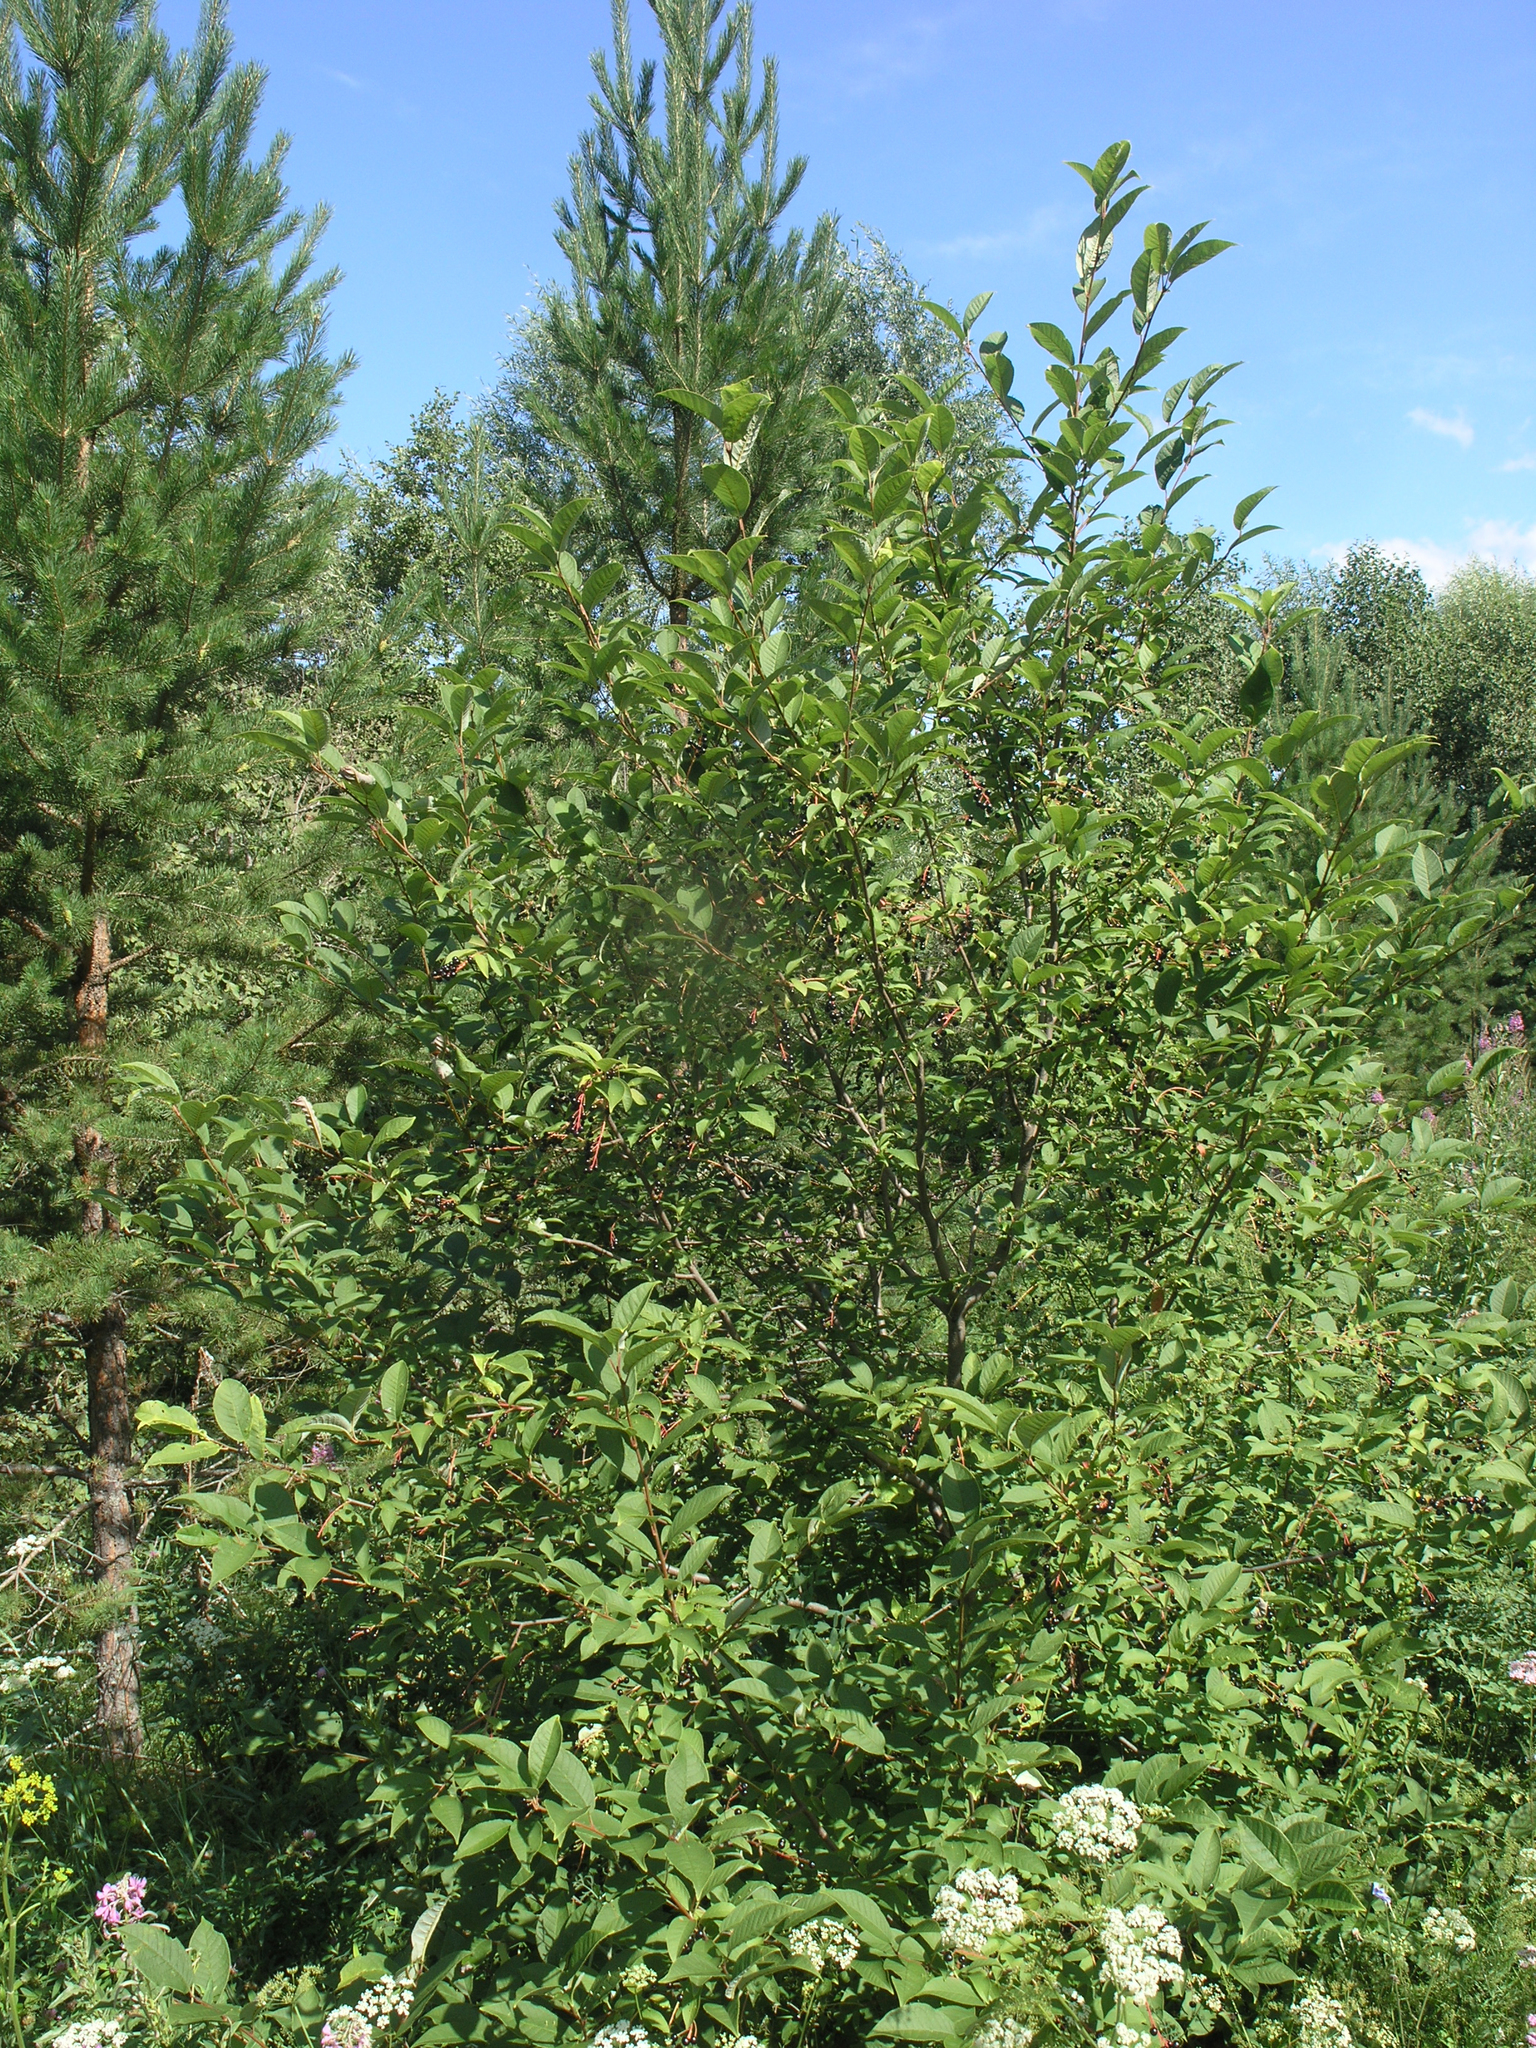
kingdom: Plantae
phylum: Tracheophyta
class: Magnoliopsida
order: Rosales
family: Rosaceae
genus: Prunus
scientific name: Prunus padus
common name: Bird cherry
